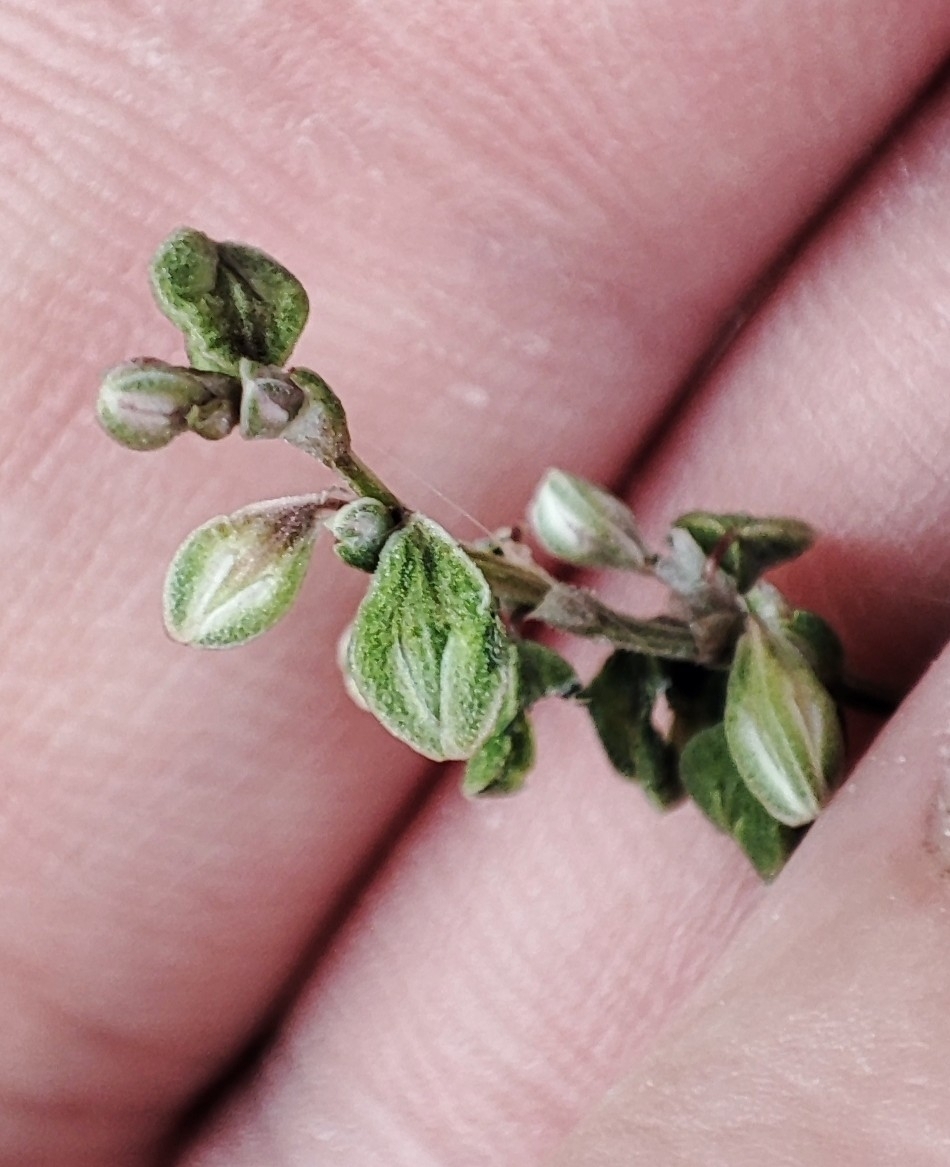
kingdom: Plantae
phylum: Tracheophyta
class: Magnoliopsida
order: Caryophyllales
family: Polygonaceae
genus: Fallopia
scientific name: Fallopia convolvulus
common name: Black bindweed
